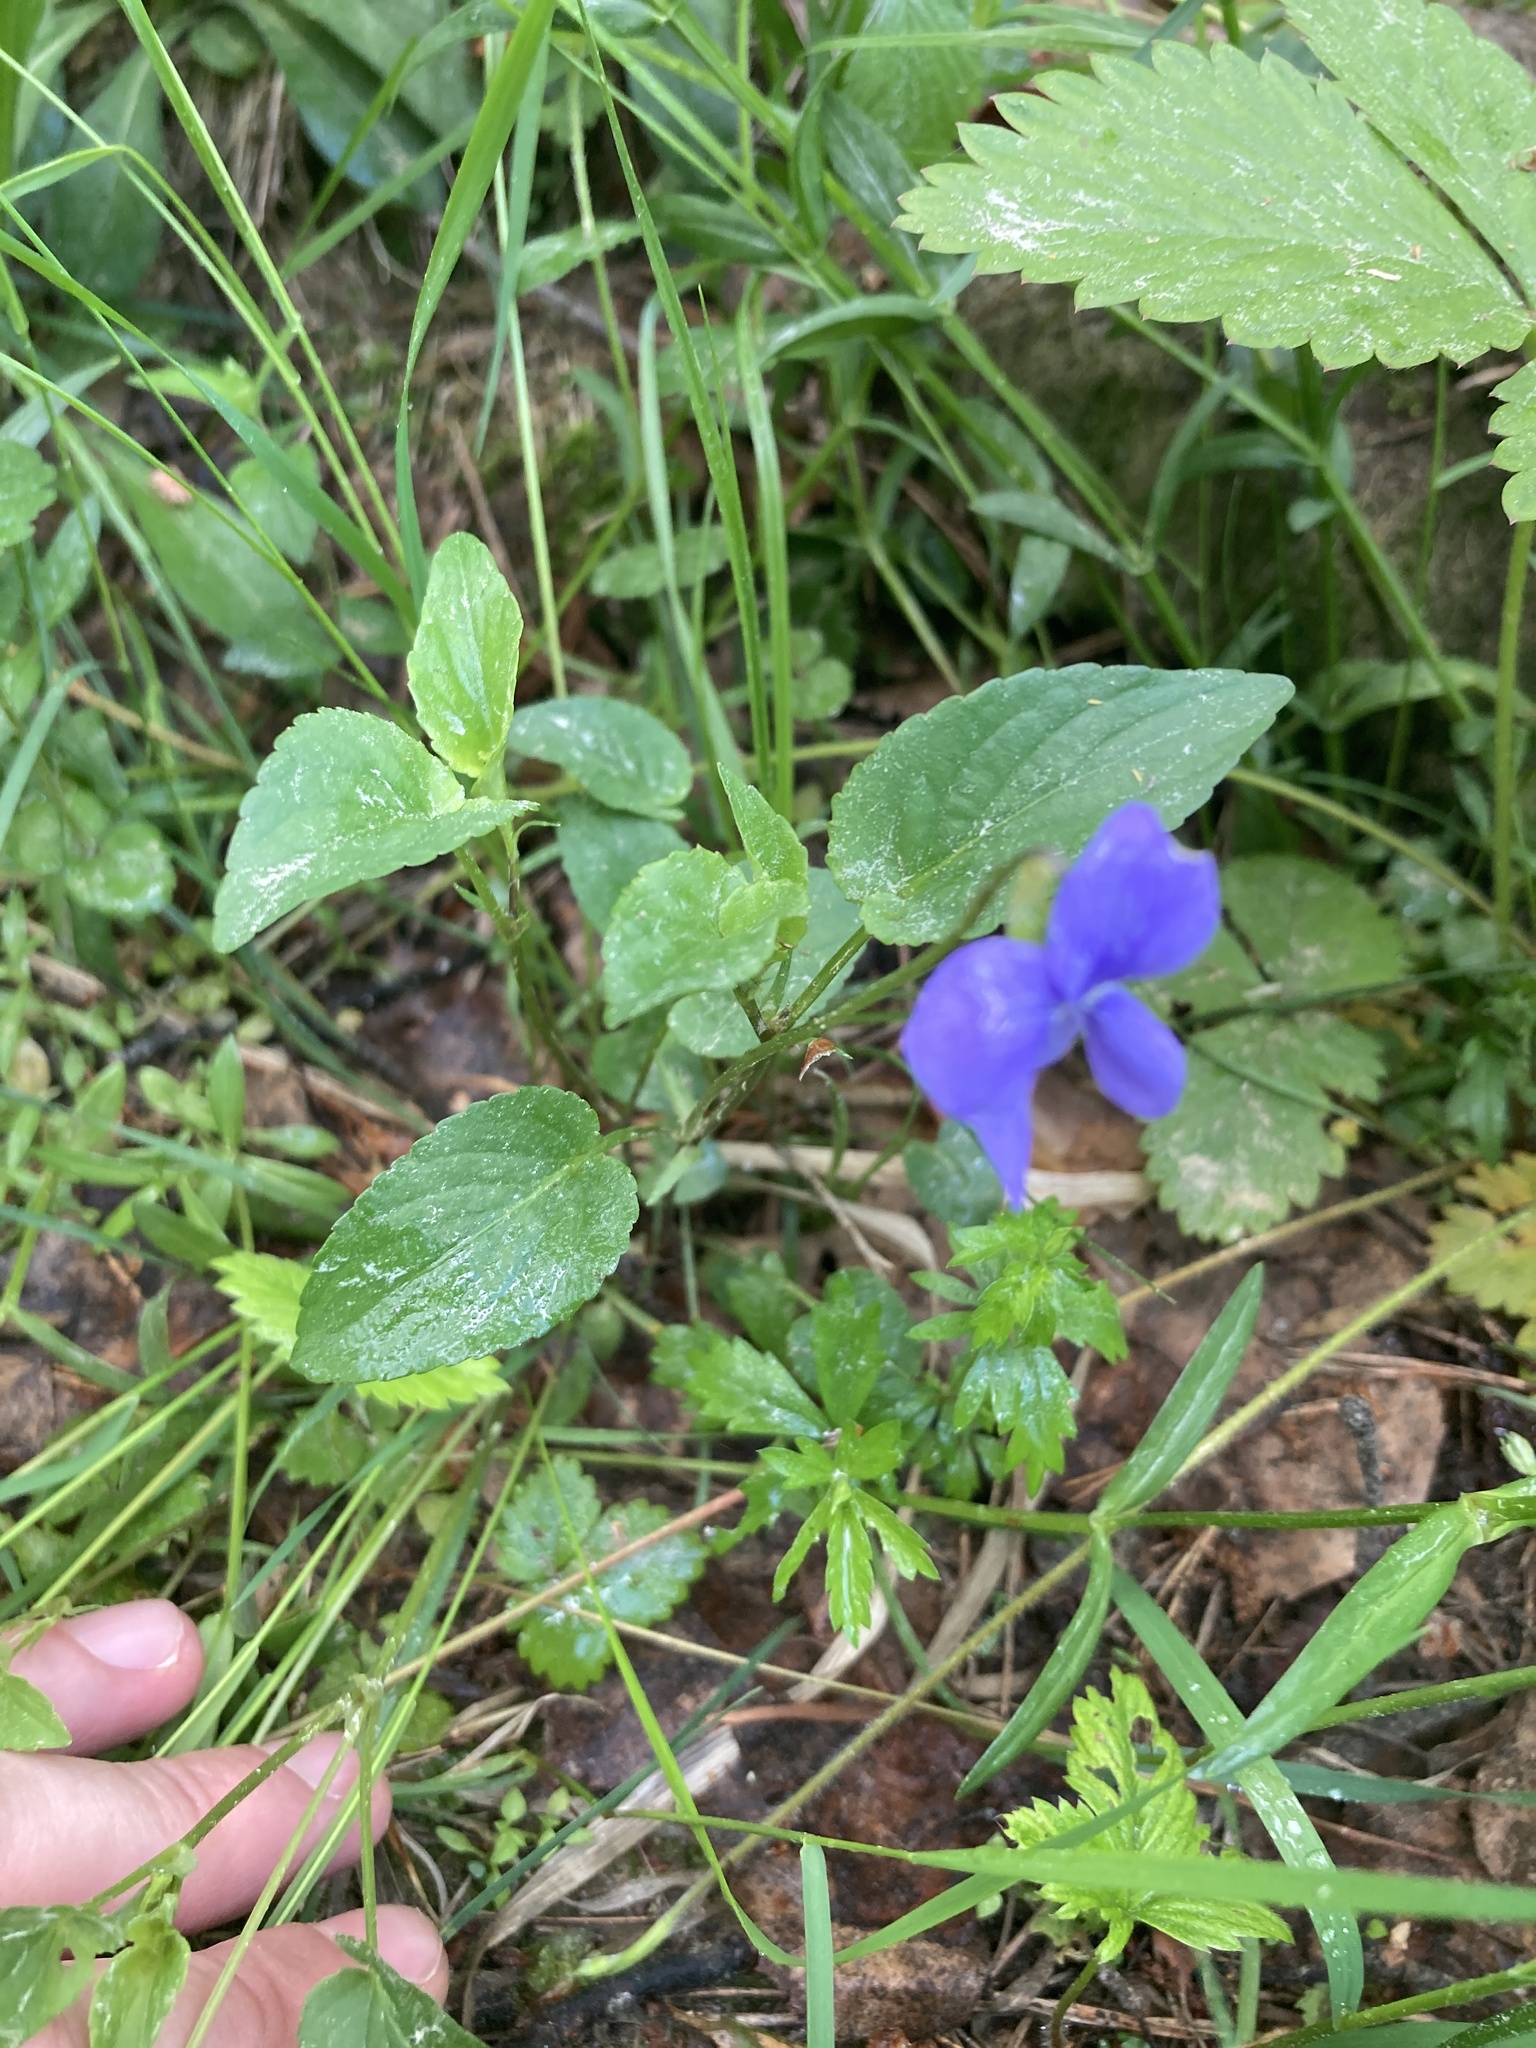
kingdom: Plantae
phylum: Tracheophyta
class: Magnoliopsida
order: Malpighiales
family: Violaceae
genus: Viola
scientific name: Viola canina
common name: Heath dog-violet
